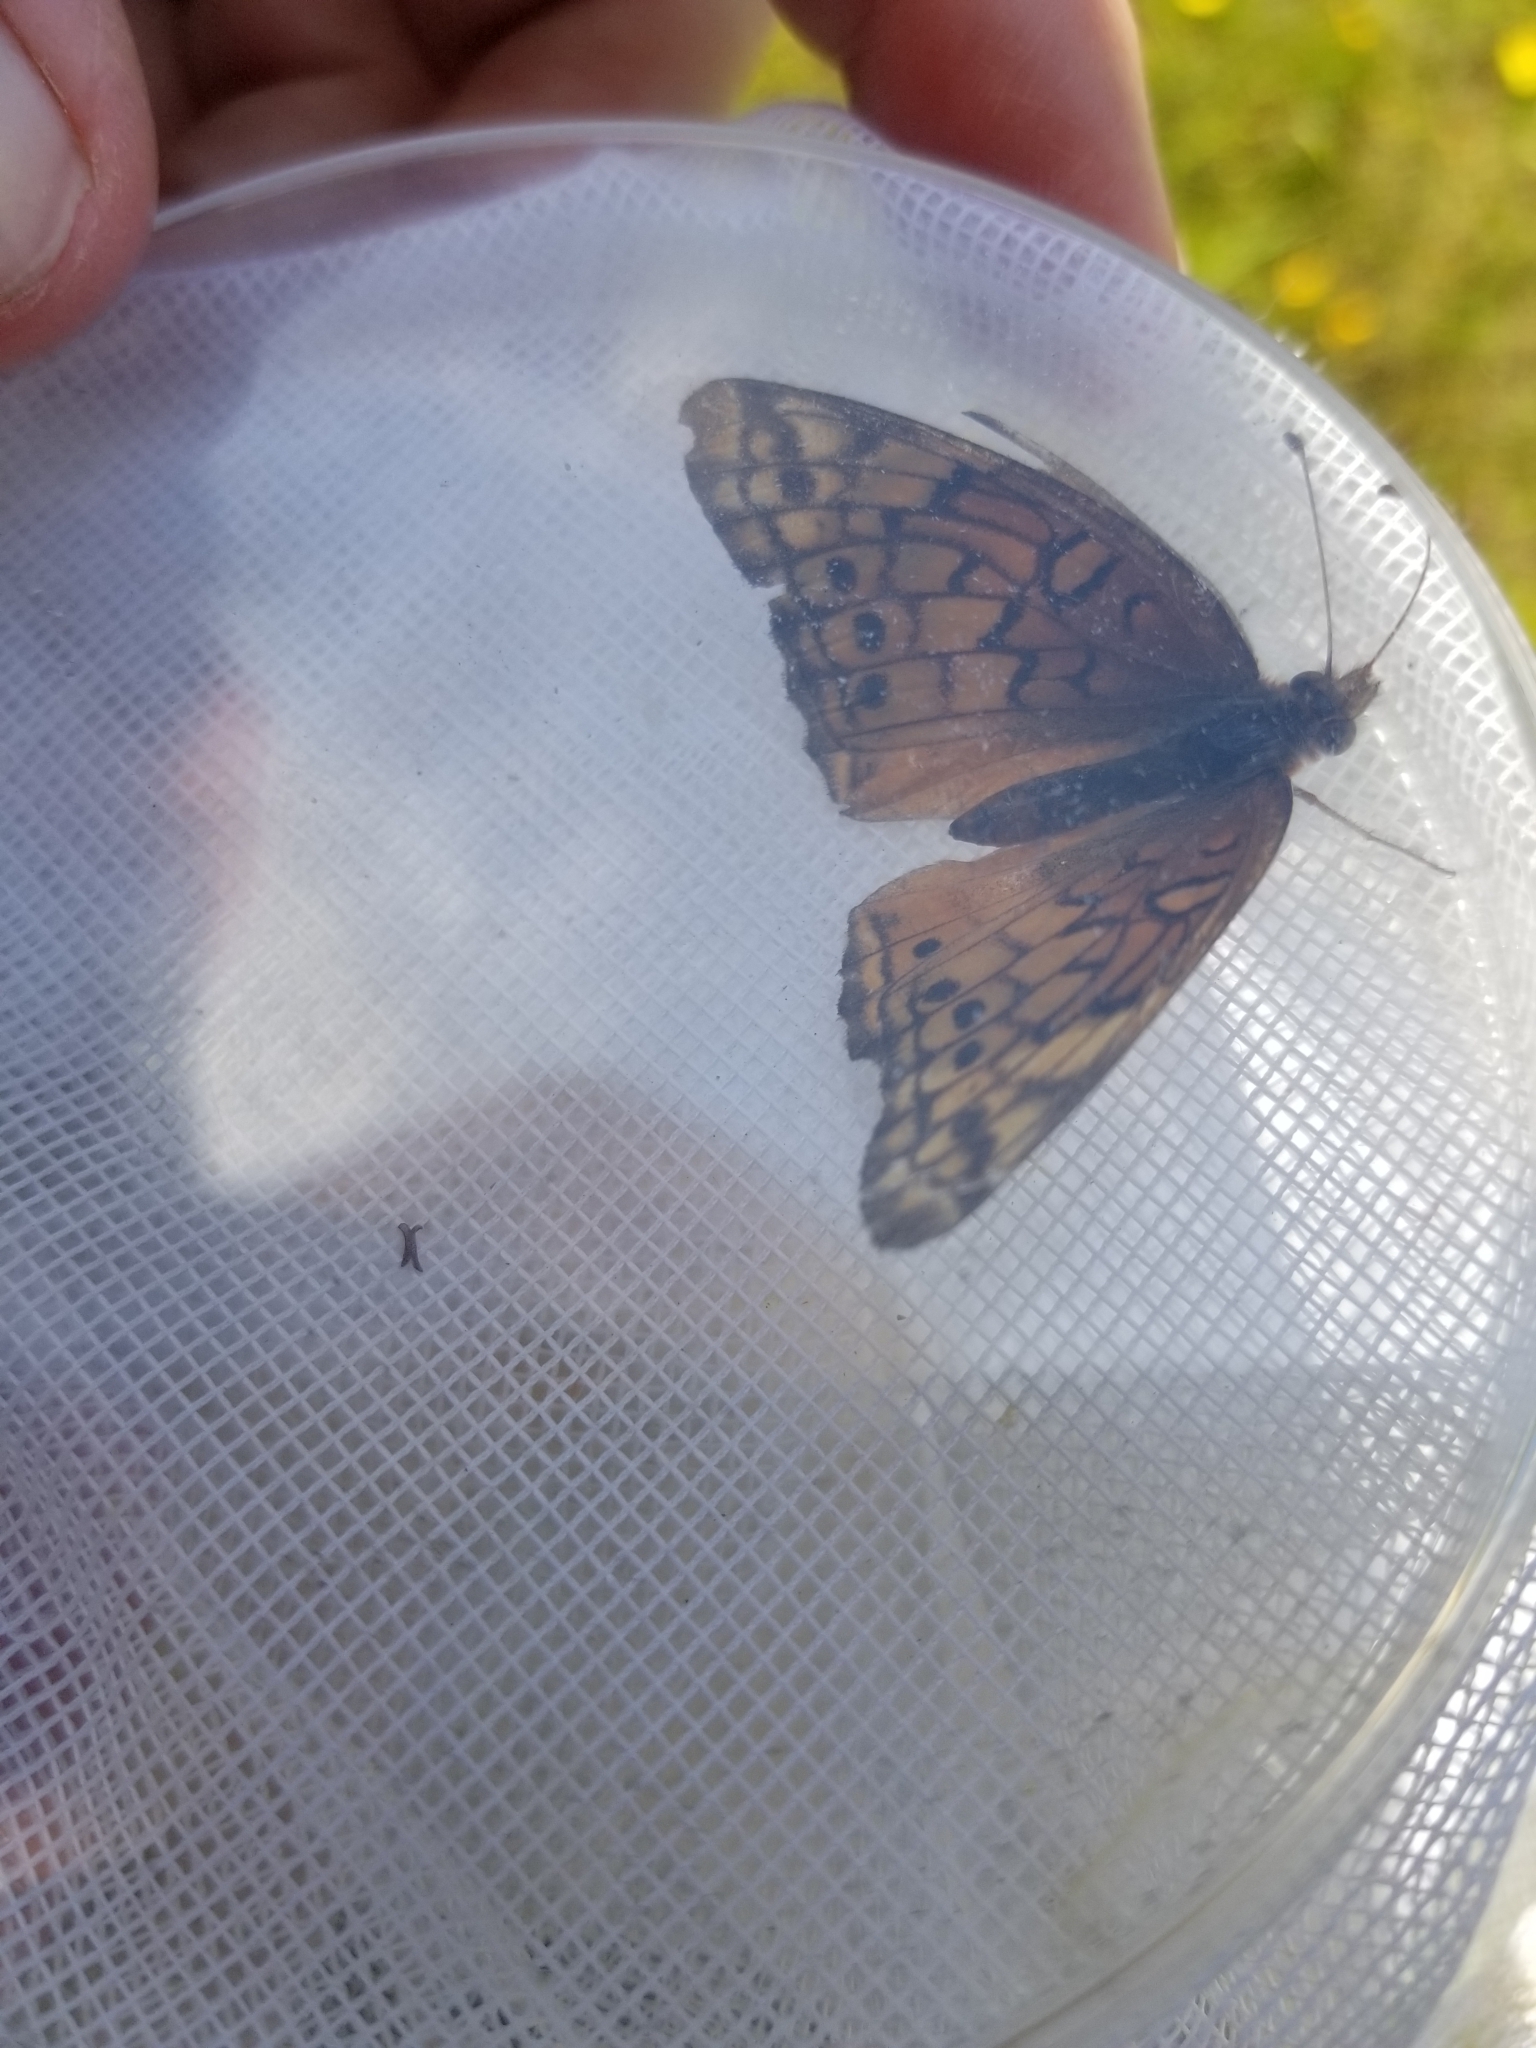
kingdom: Animalia
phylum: Arthropoda
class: Insecta
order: Lepidoptera
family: Nymphalidae
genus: Euptoieta
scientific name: Euptoieta claudia
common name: Variegated fritillary
